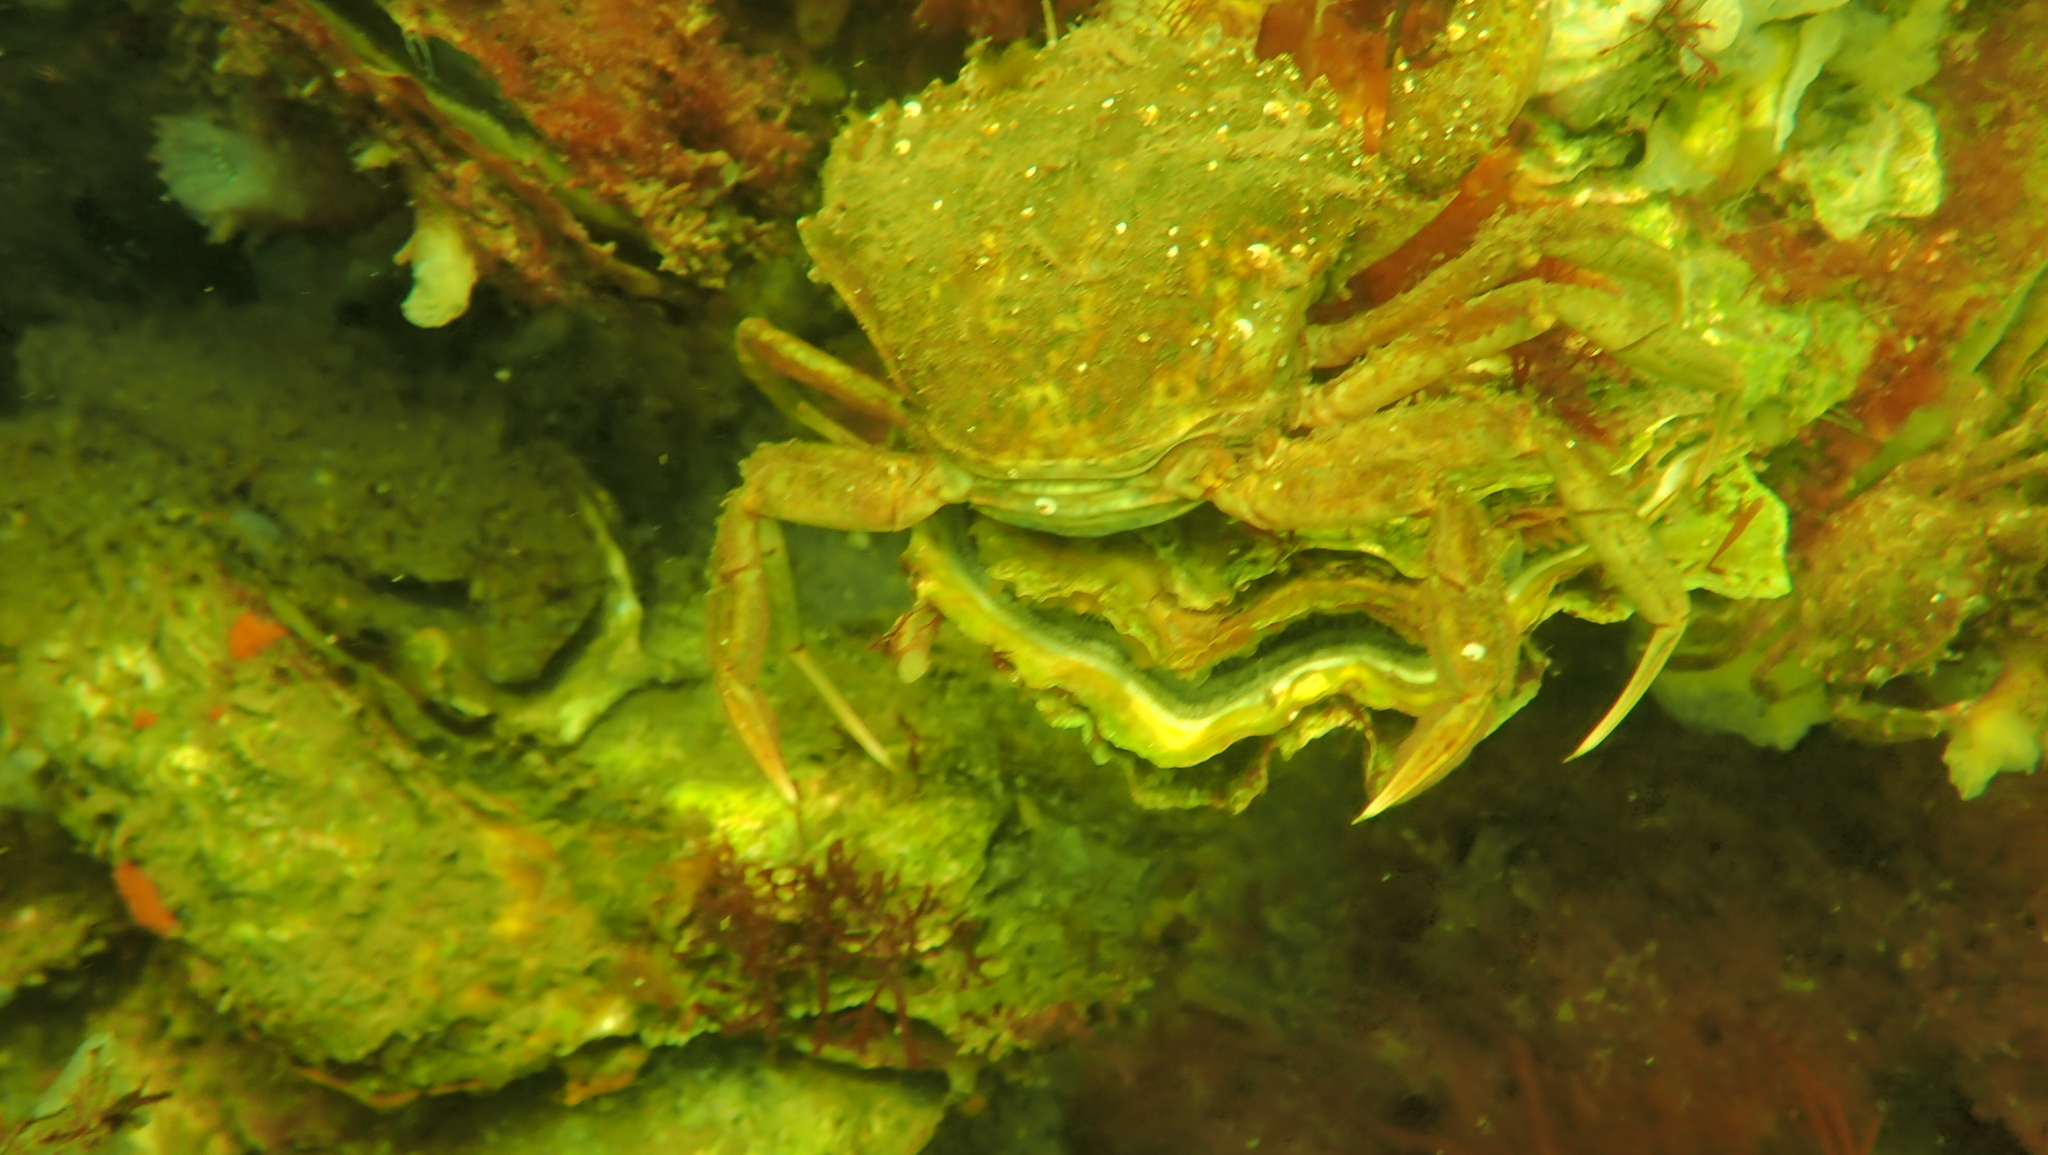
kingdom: Animalia
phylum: Arthropoda
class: Malacostraca
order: Decapoda
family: Carcinidae
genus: Carcinus
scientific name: Carcinus maenas
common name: European green crab
